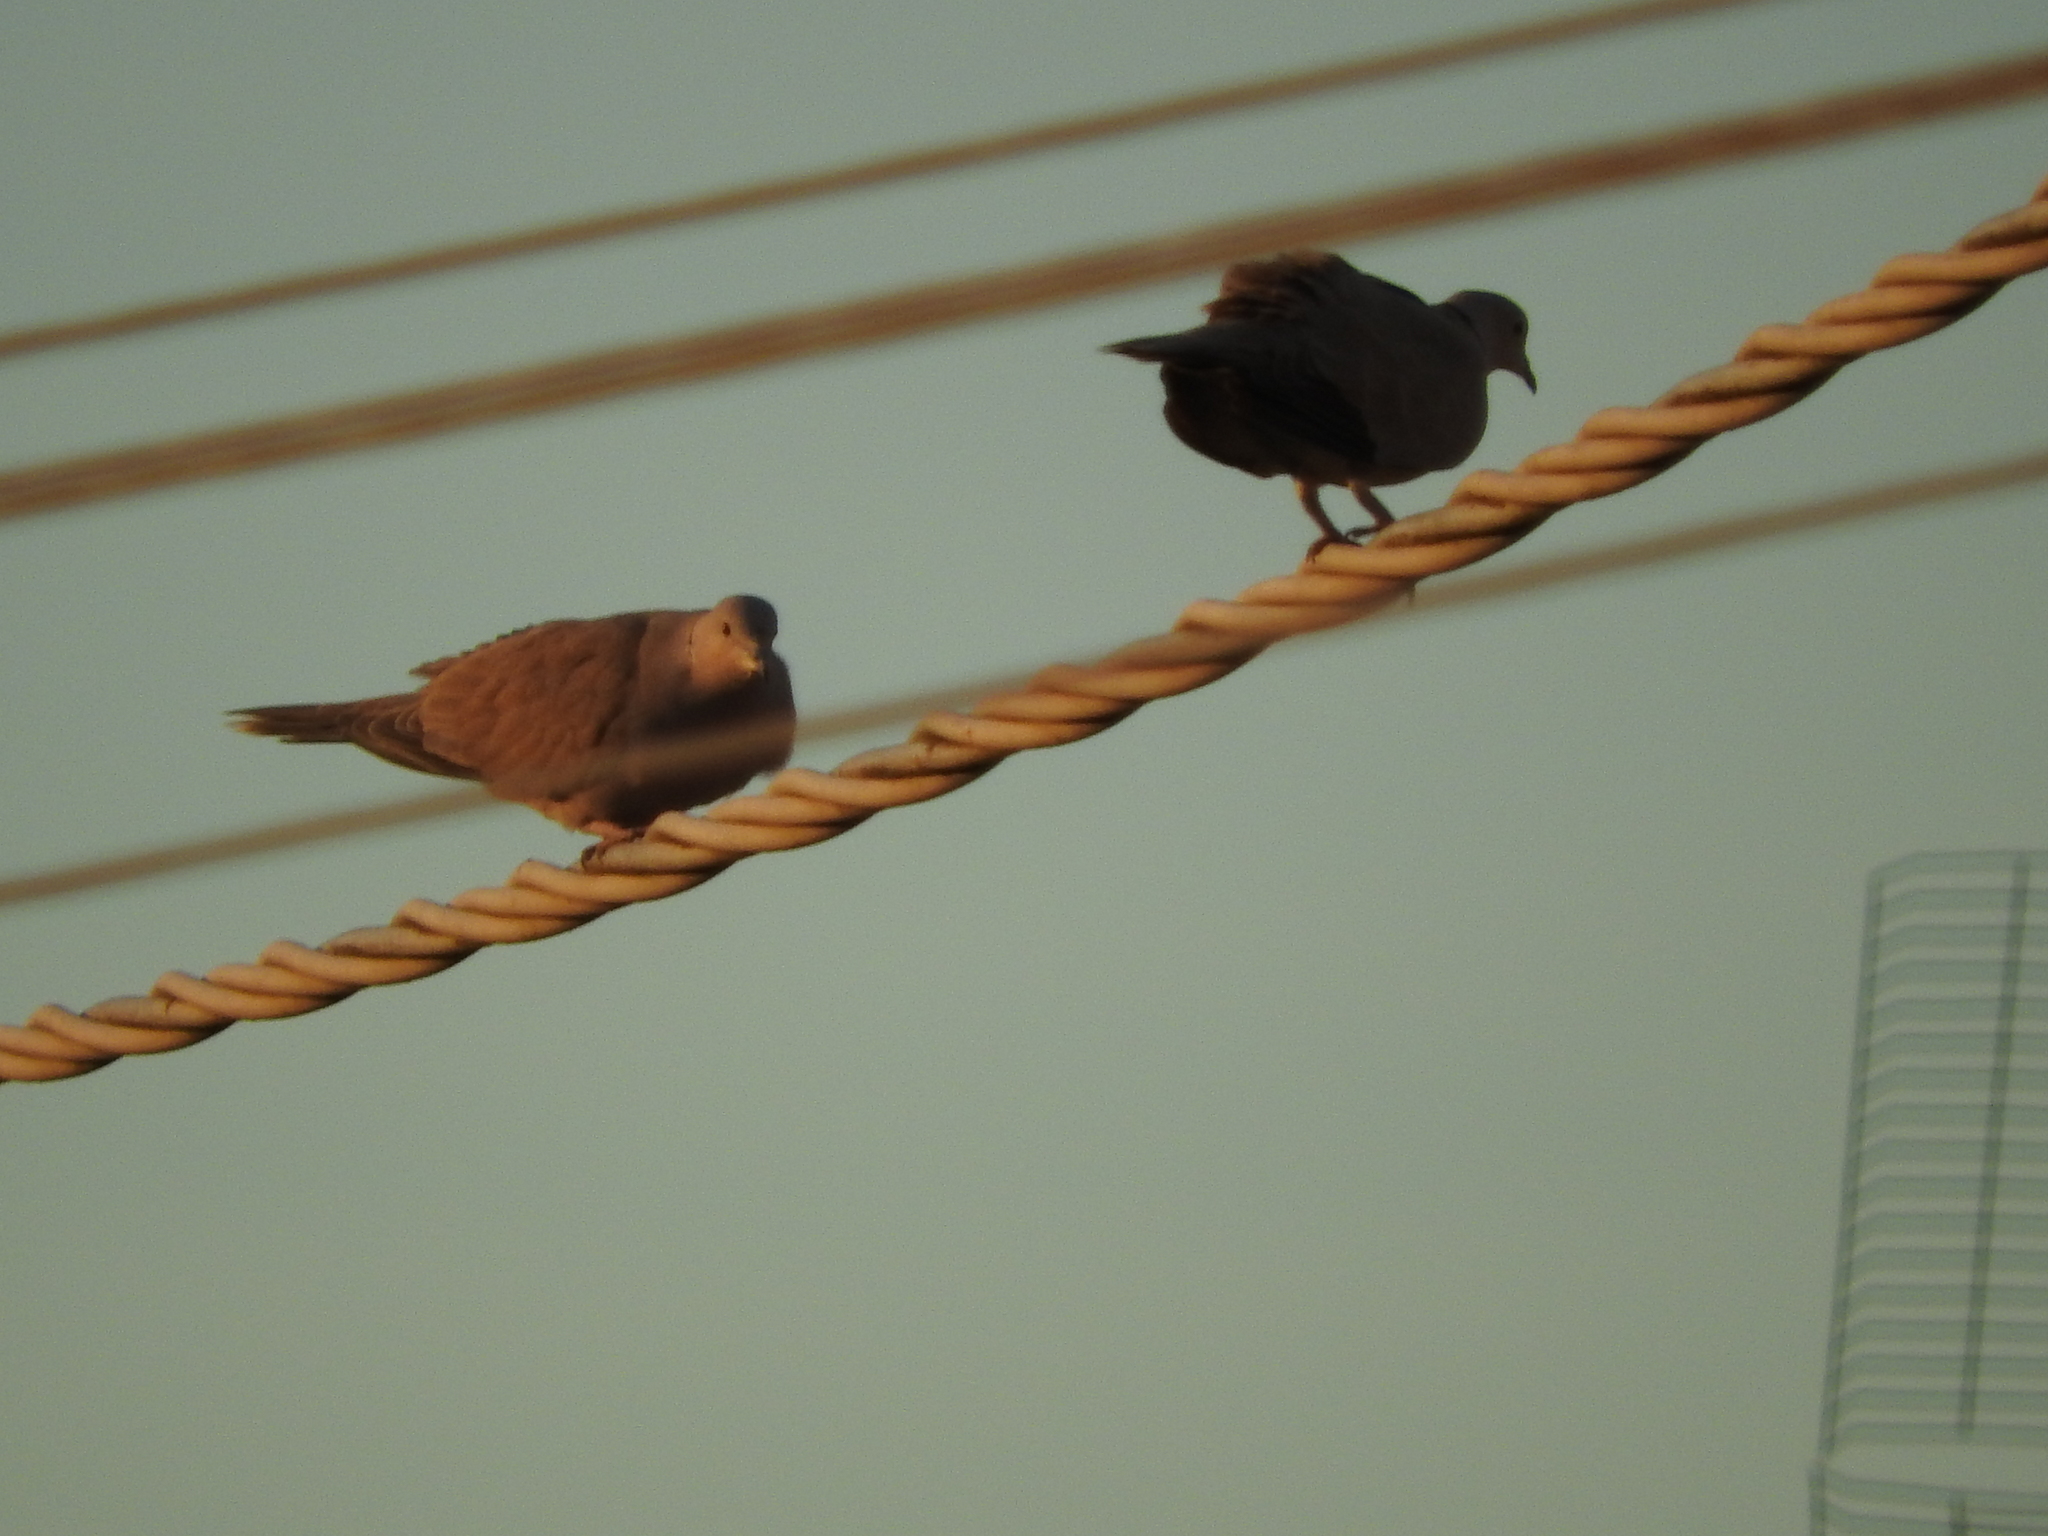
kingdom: Animalia
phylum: Chordata
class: Aves
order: Columbiformes
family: Columbidae
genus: Streptopelia
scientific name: Streptopelia decaocto
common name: Eurasian collared dove
